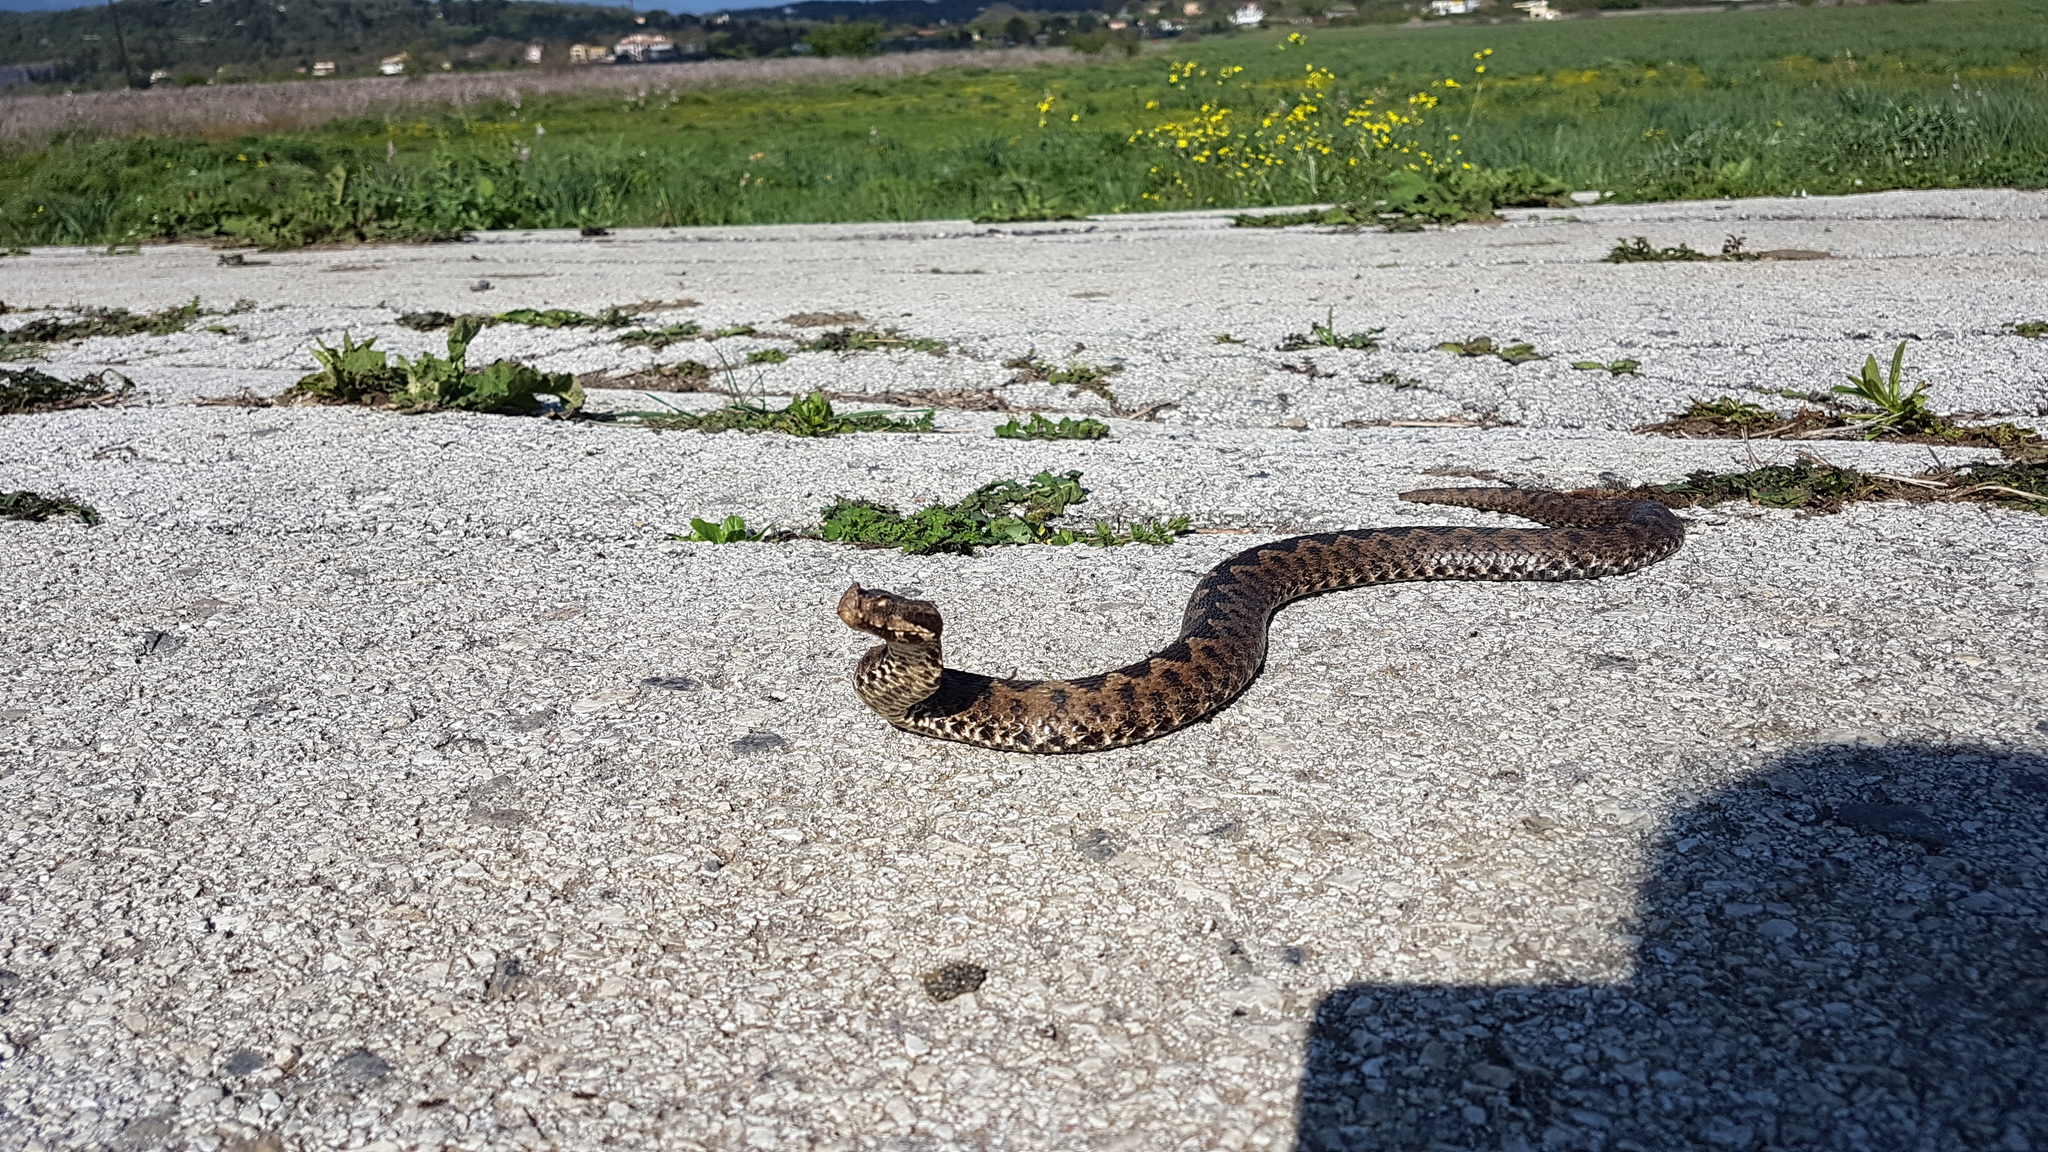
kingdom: Animalia
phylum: Chordata
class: Squamata
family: Viperidae
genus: Vipera
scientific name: Vipera ammodytes
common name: Sand viper
